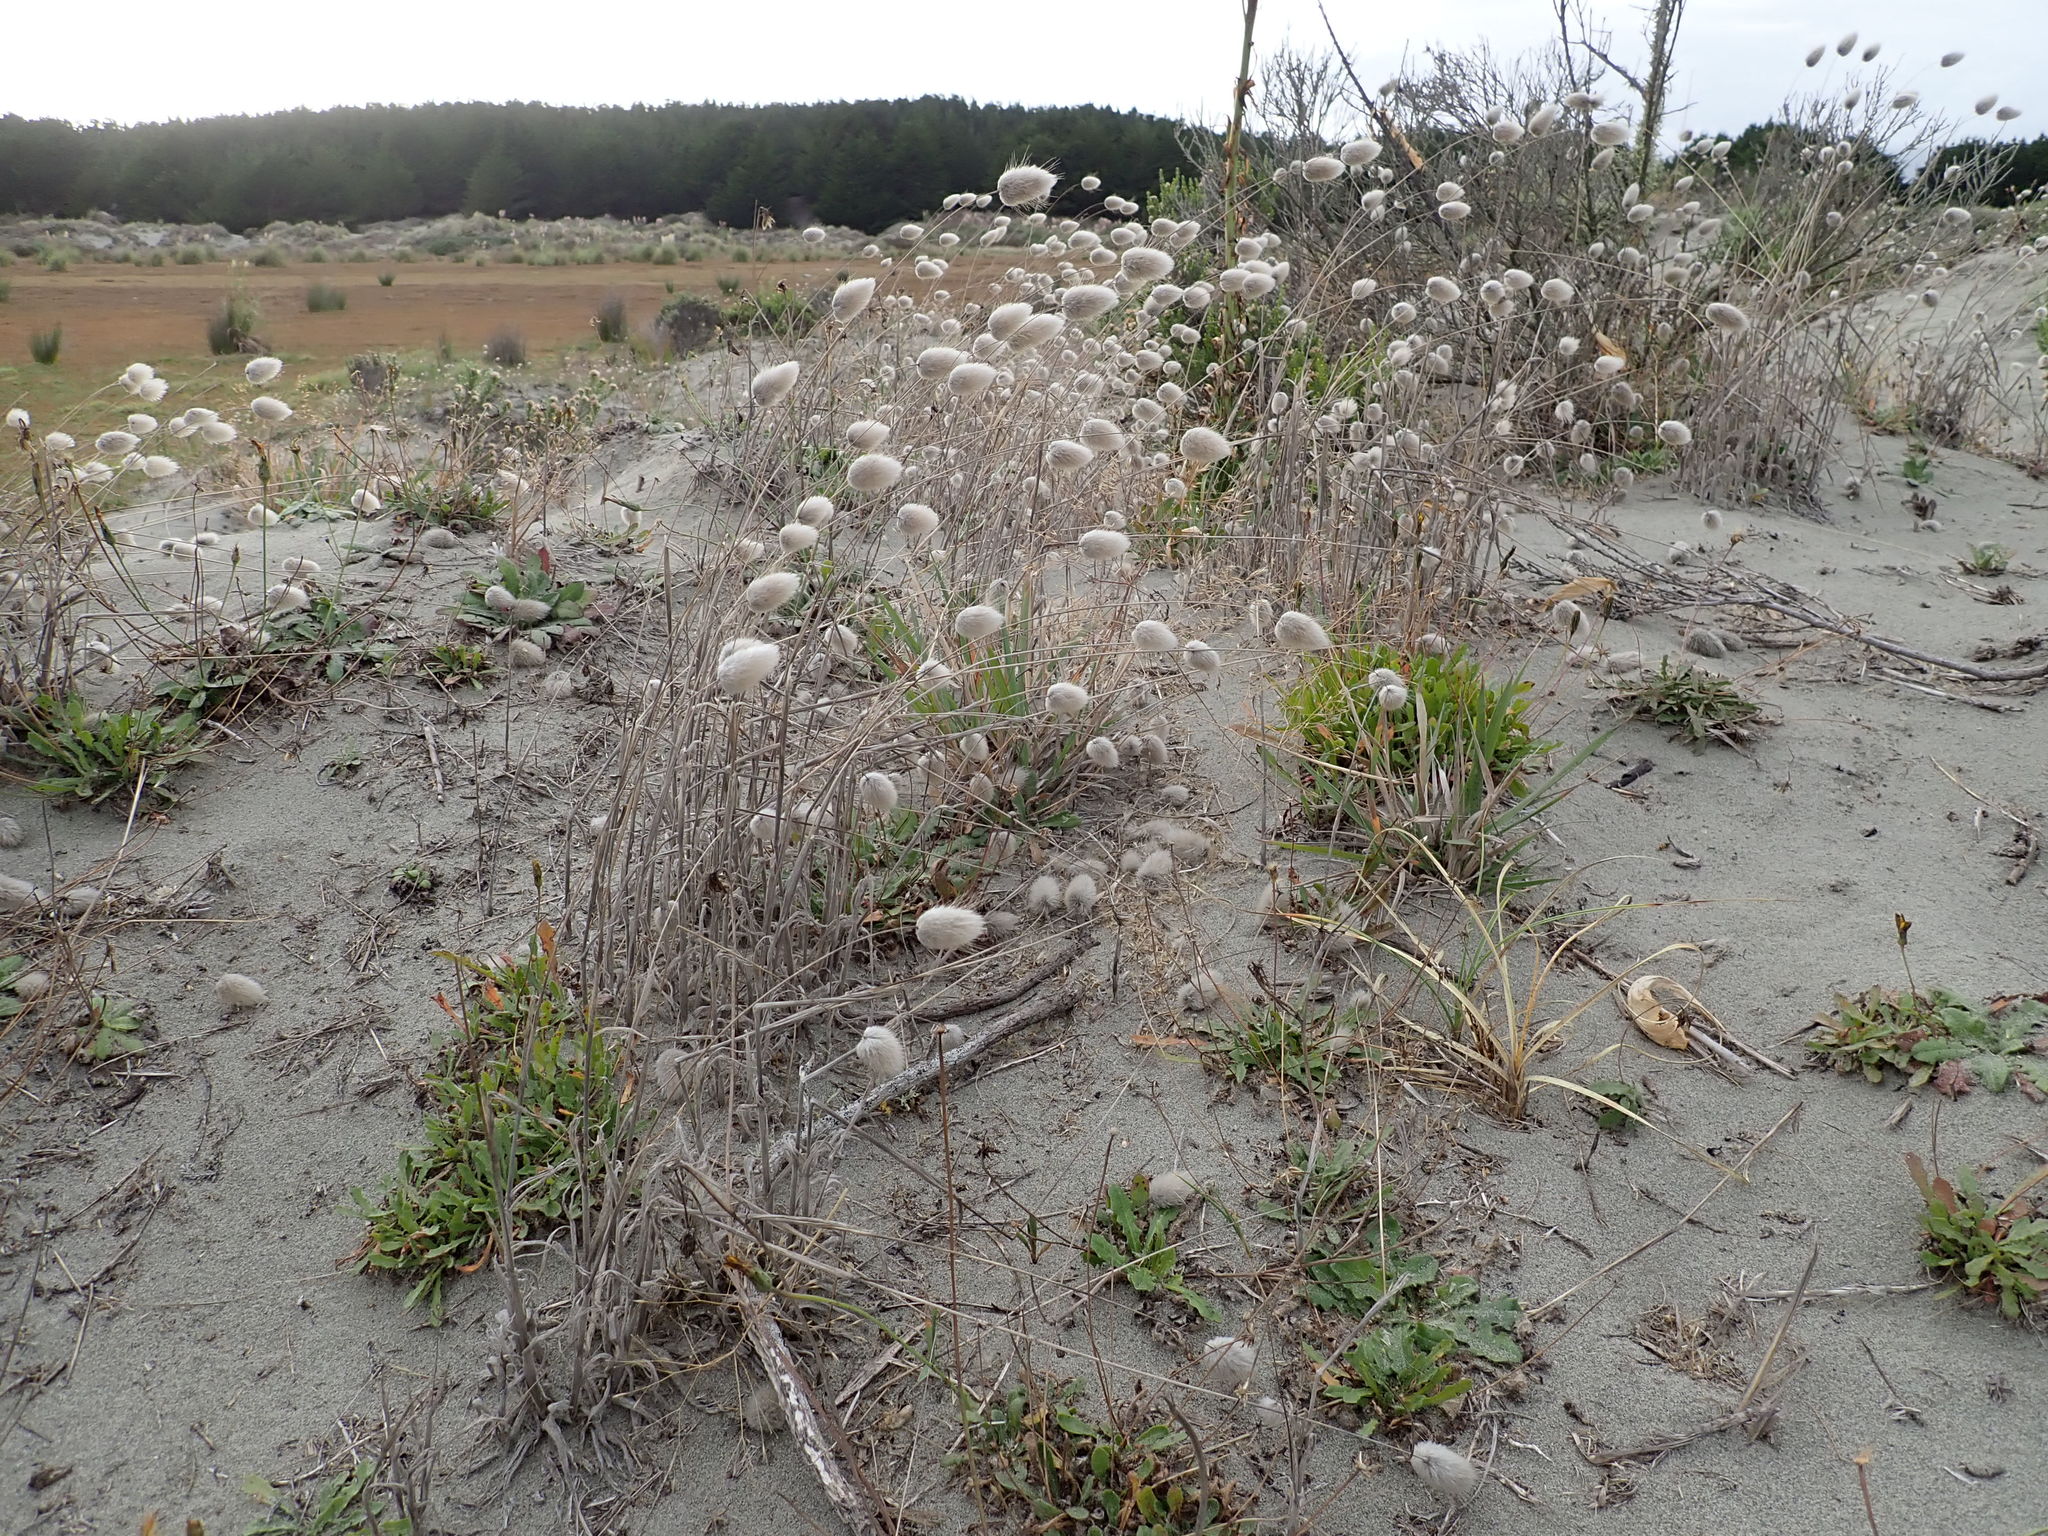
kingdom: Plantae
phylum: Tracheophyta
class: Liliopsida
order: Poales
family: Poaceae
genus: Lagurus
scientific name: Lagurus ovatus
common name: Hare's-tail
